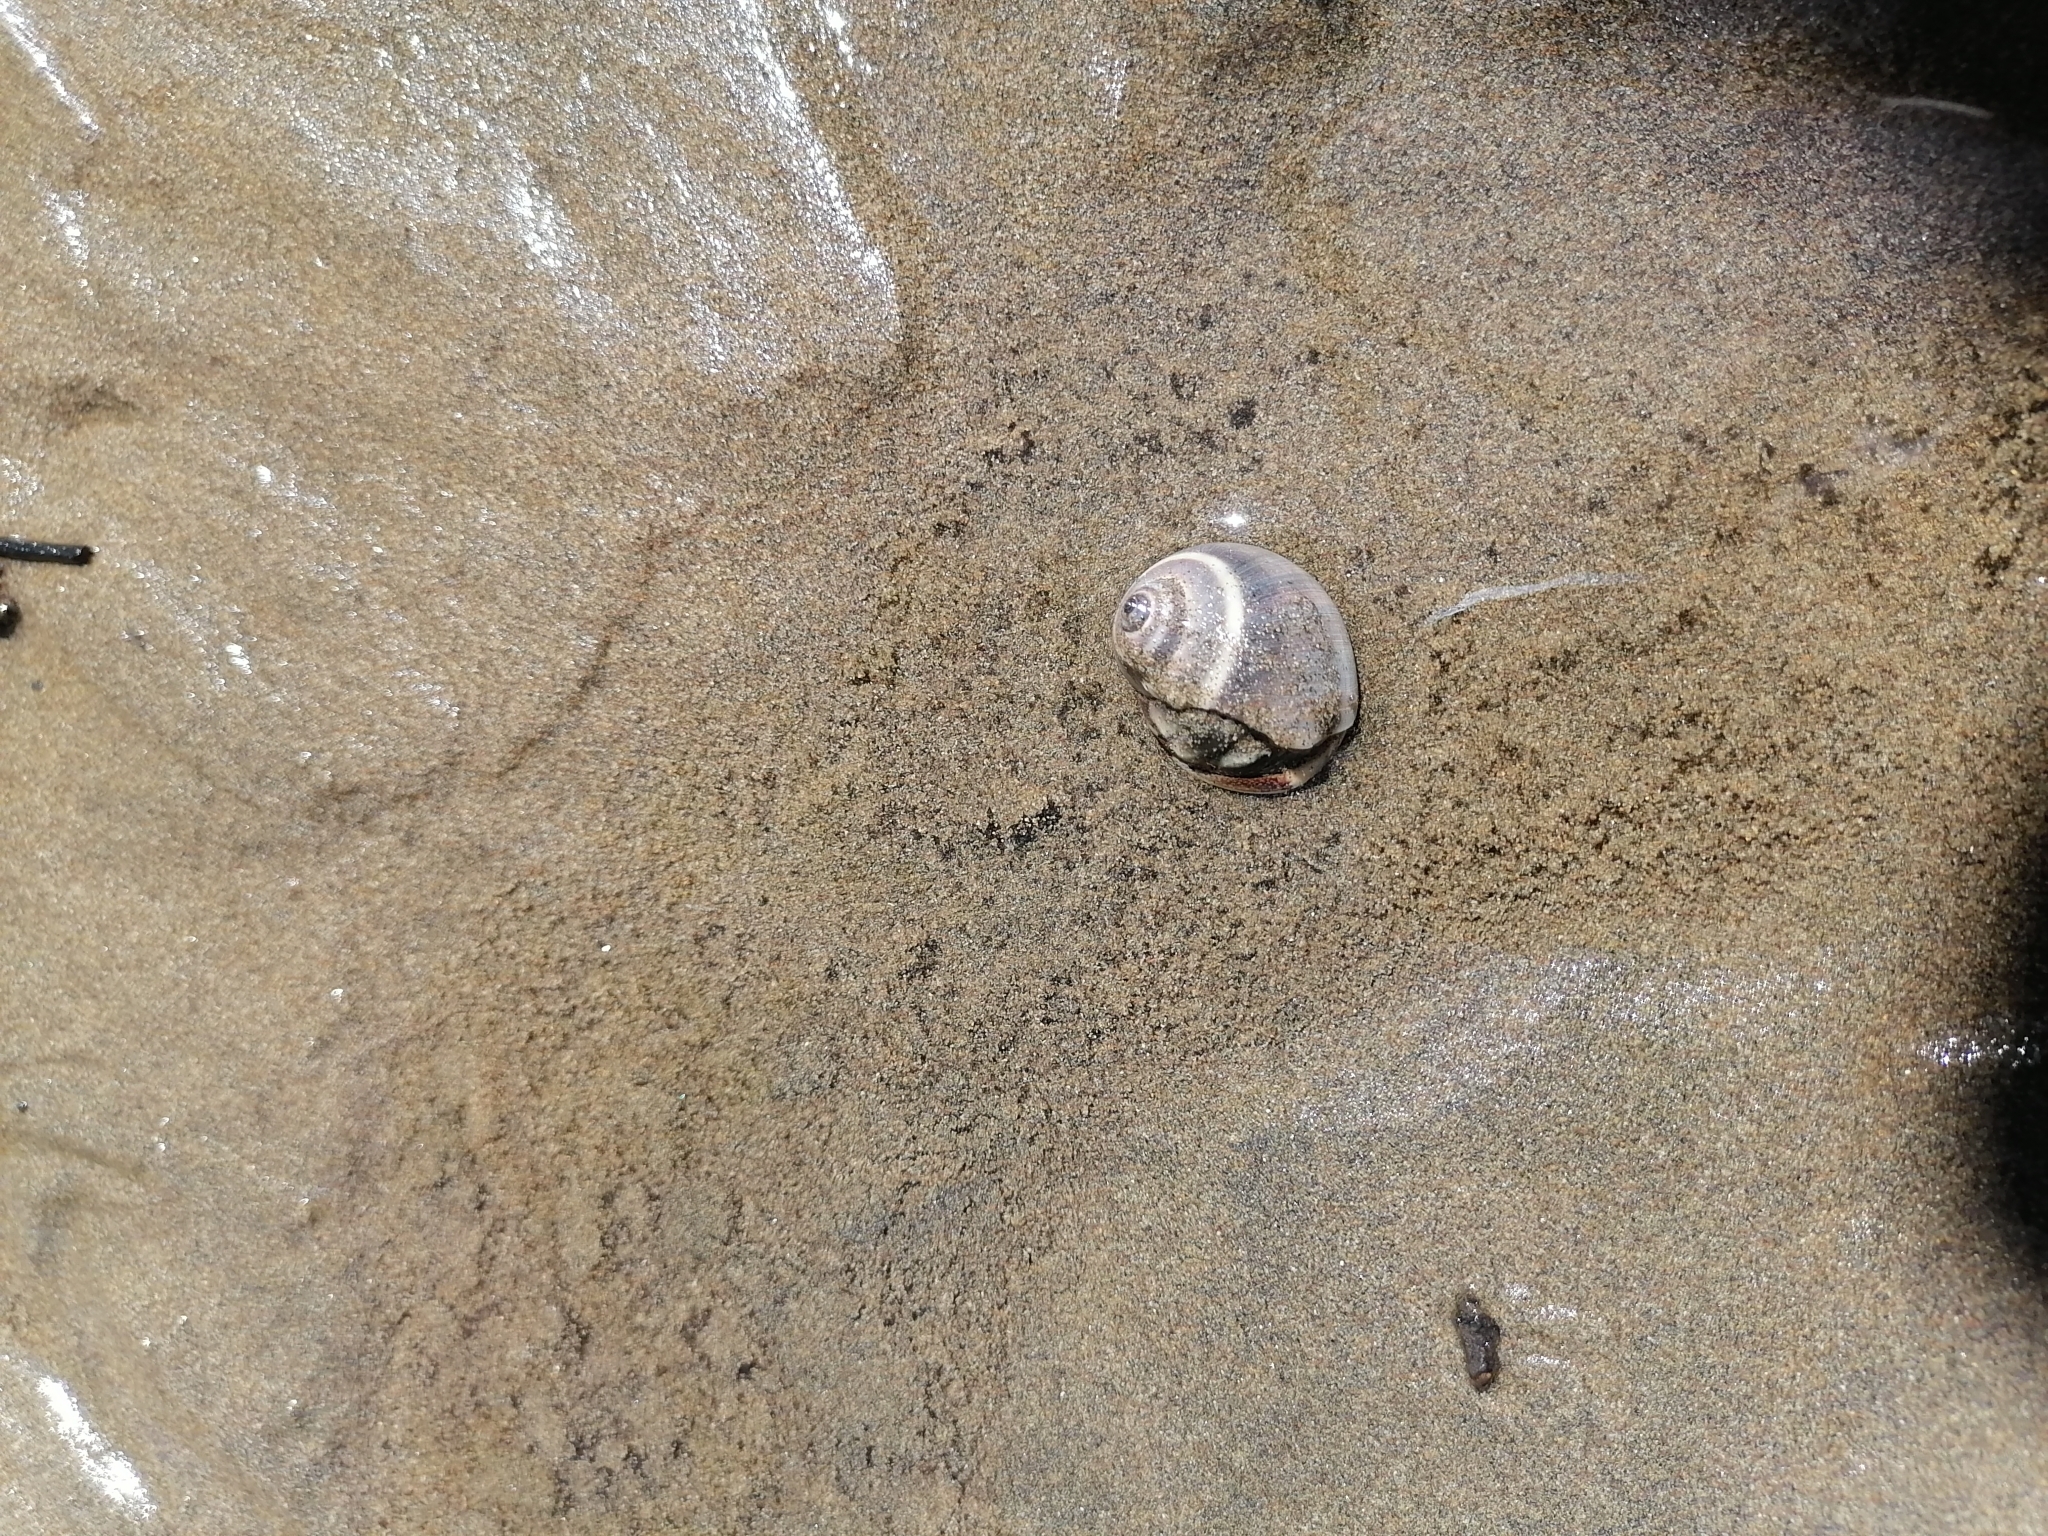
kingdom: Animalia
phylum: Arthropoda
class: Malacostraca
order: Decapoda
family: Coenobitidae
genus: Coenobita
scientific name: Coenobita compressus
